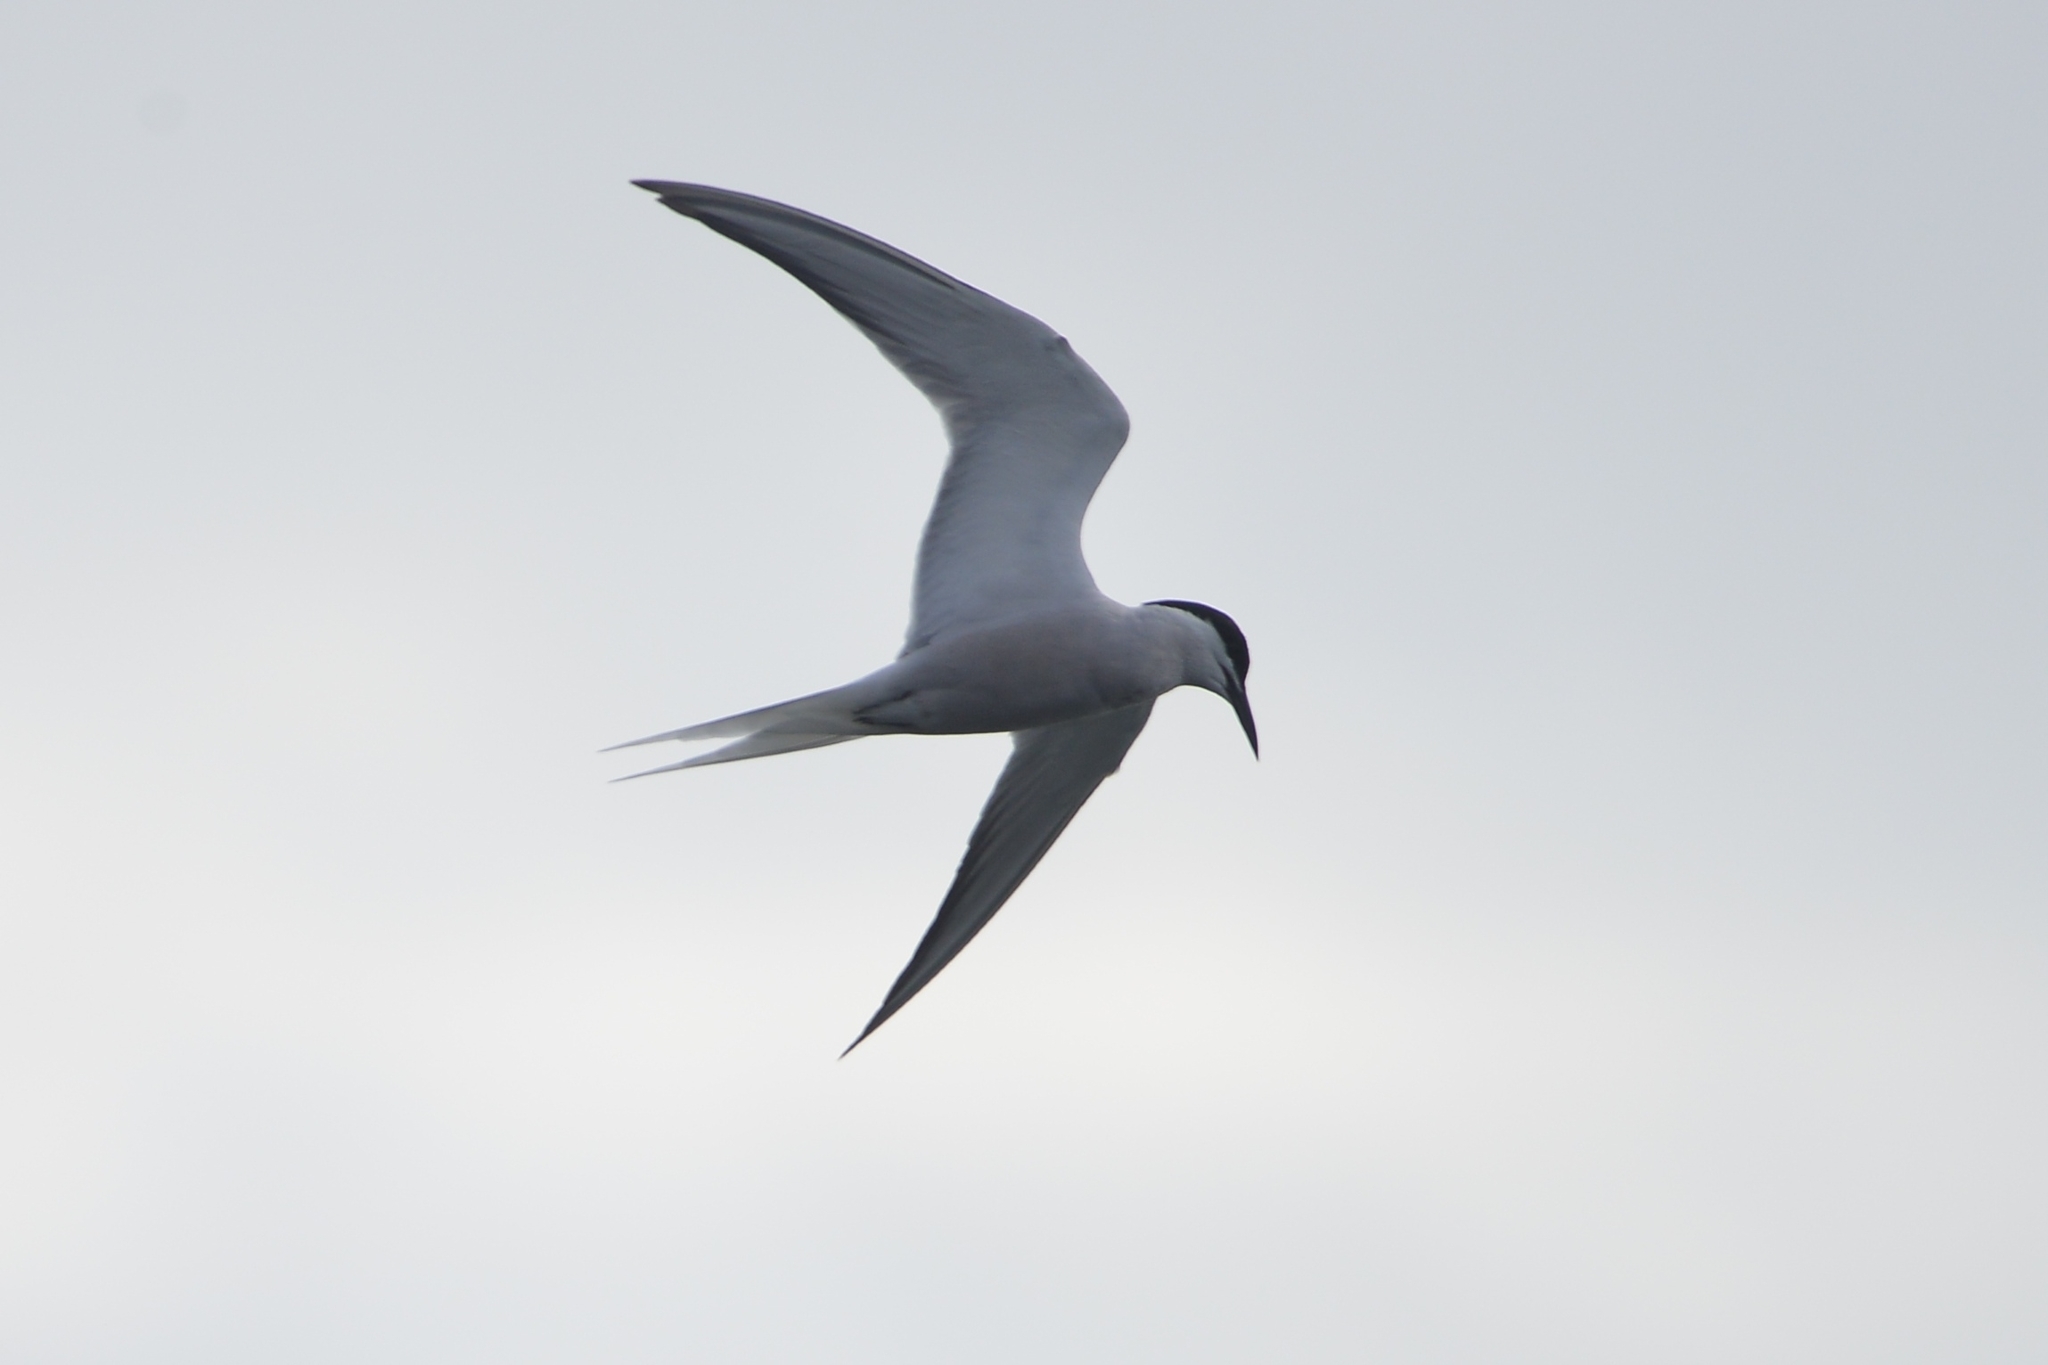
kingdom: Animalia
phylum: Chordata
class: Aves
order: Charadriiformes
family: Laridae
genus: Sterna
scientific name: Sterna hirundo
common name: Common tern
